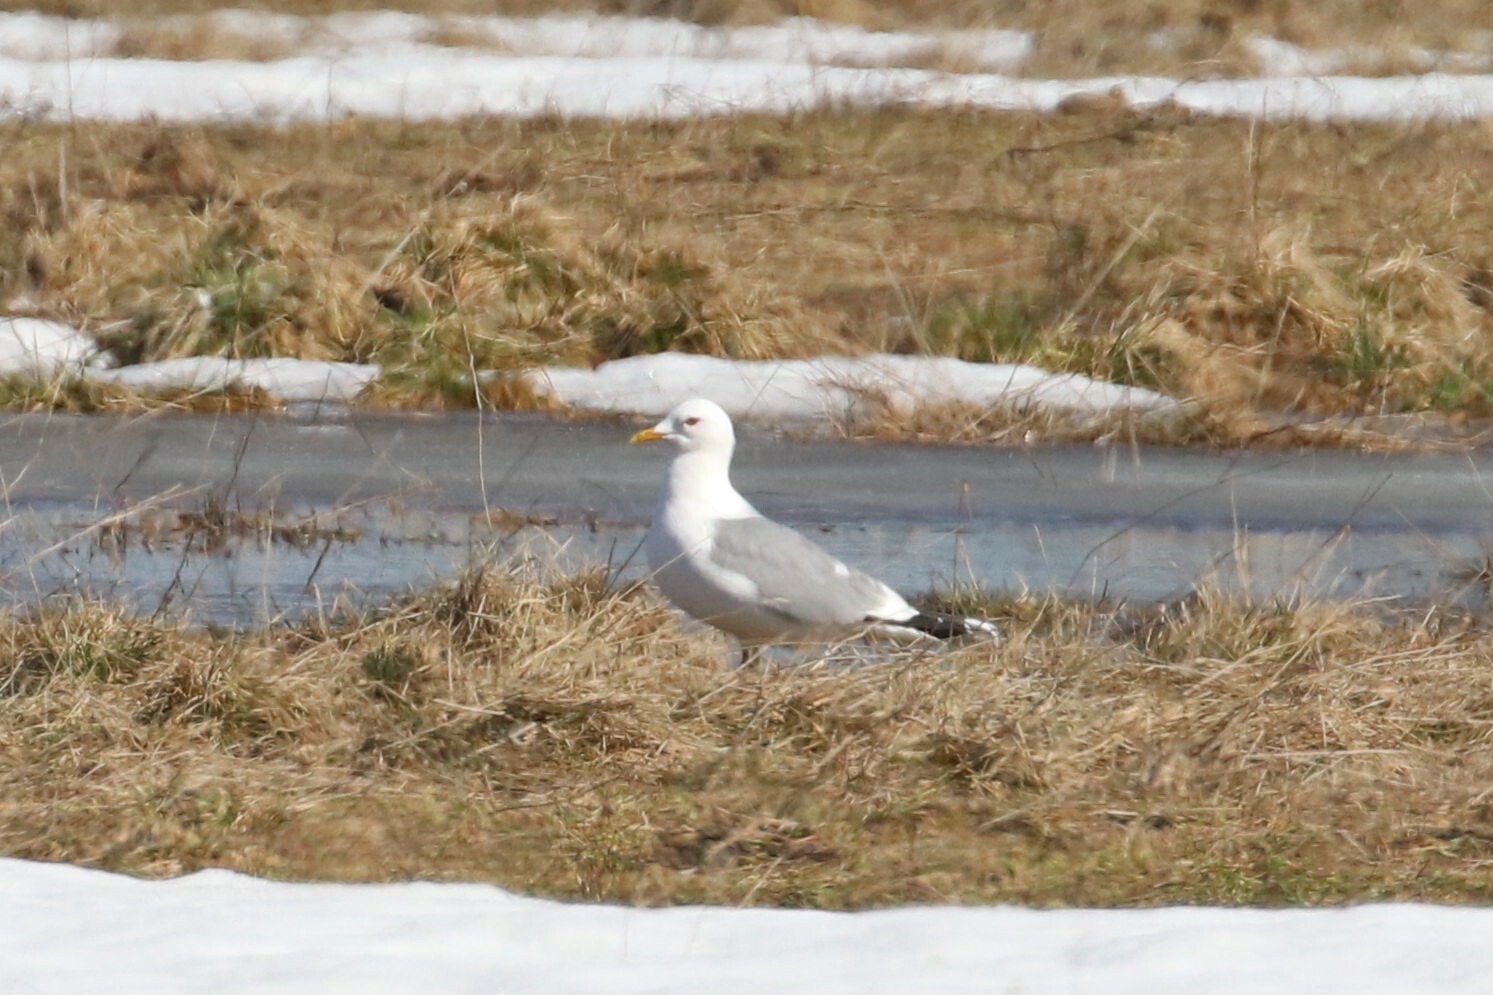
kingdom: Animalia
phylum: Chordata
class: Aves
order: Charadriiformes
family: Laridae
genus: Larus
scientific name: Larus canus
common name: Mew gull
